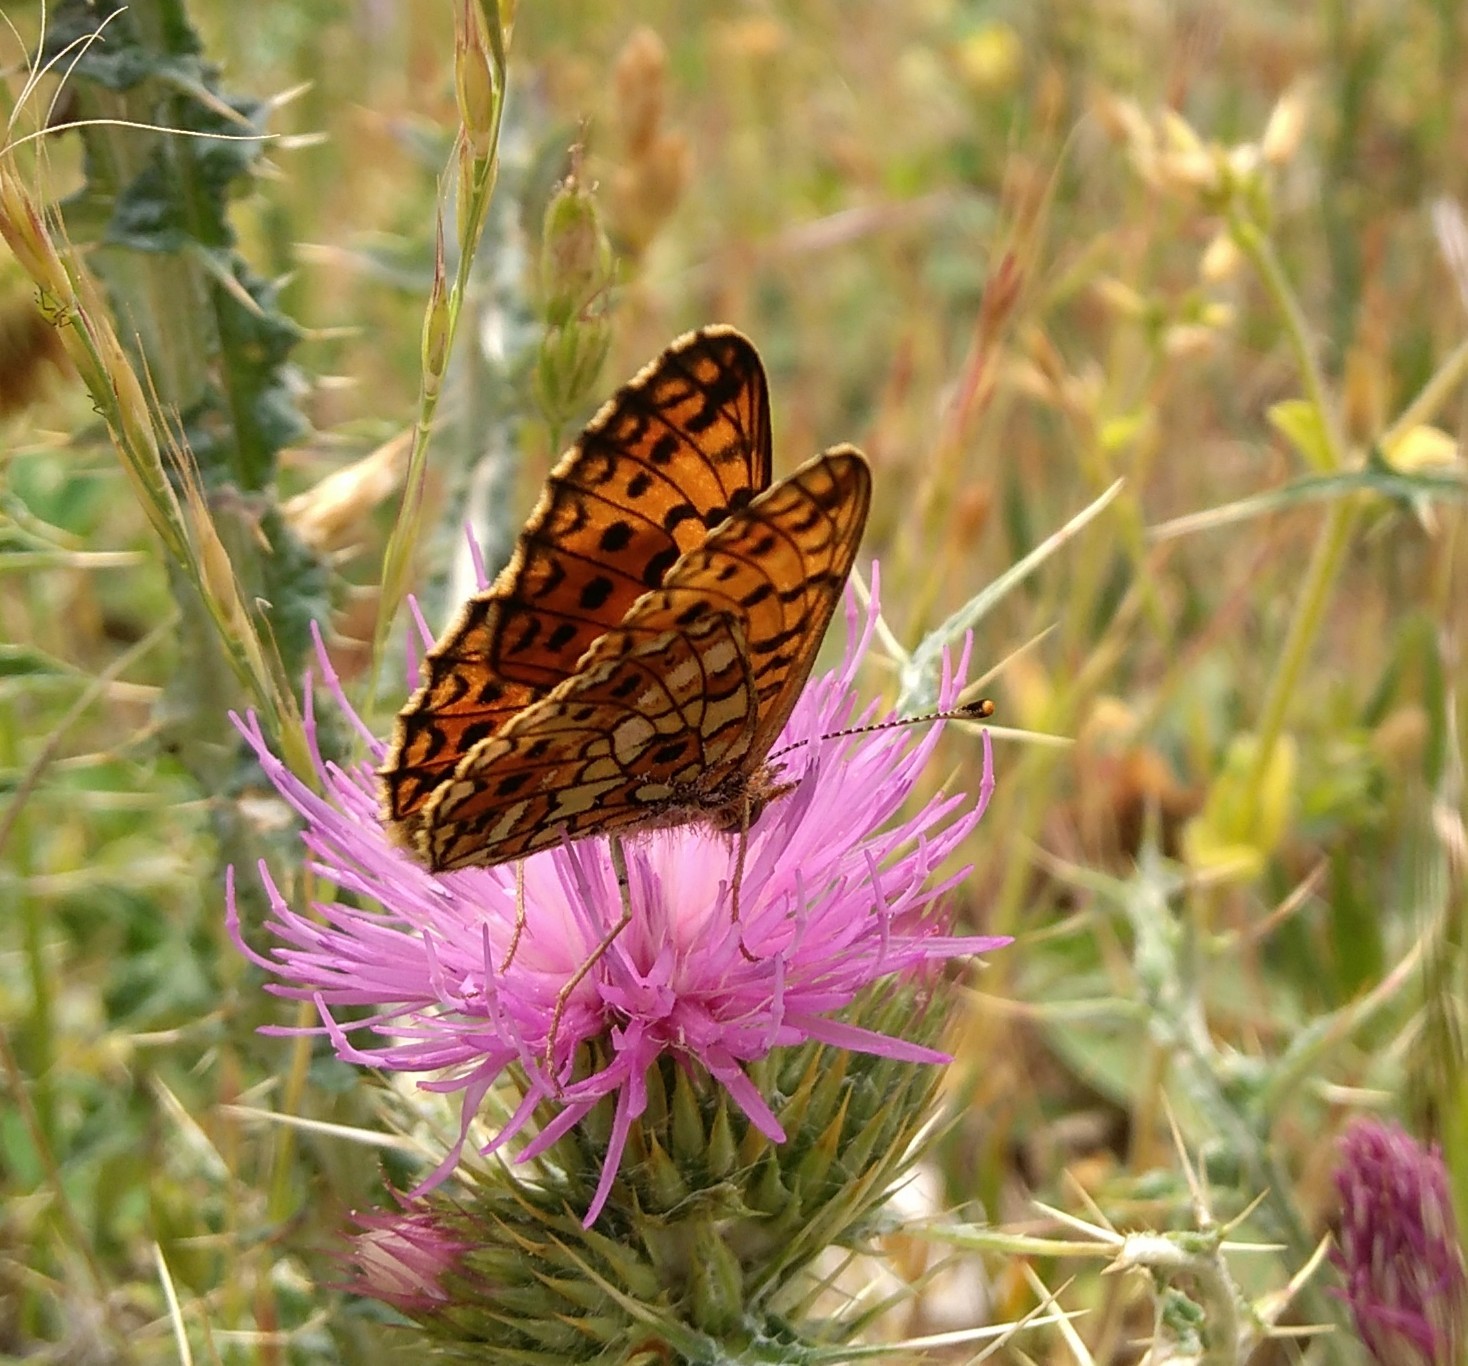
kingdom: Animalia
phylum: Arthropoda
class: Insecta
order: Lepidoptera
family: Nymphalidae
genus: Boloria
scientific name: Boloria selene
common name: Small pearl-bordered fritillary
